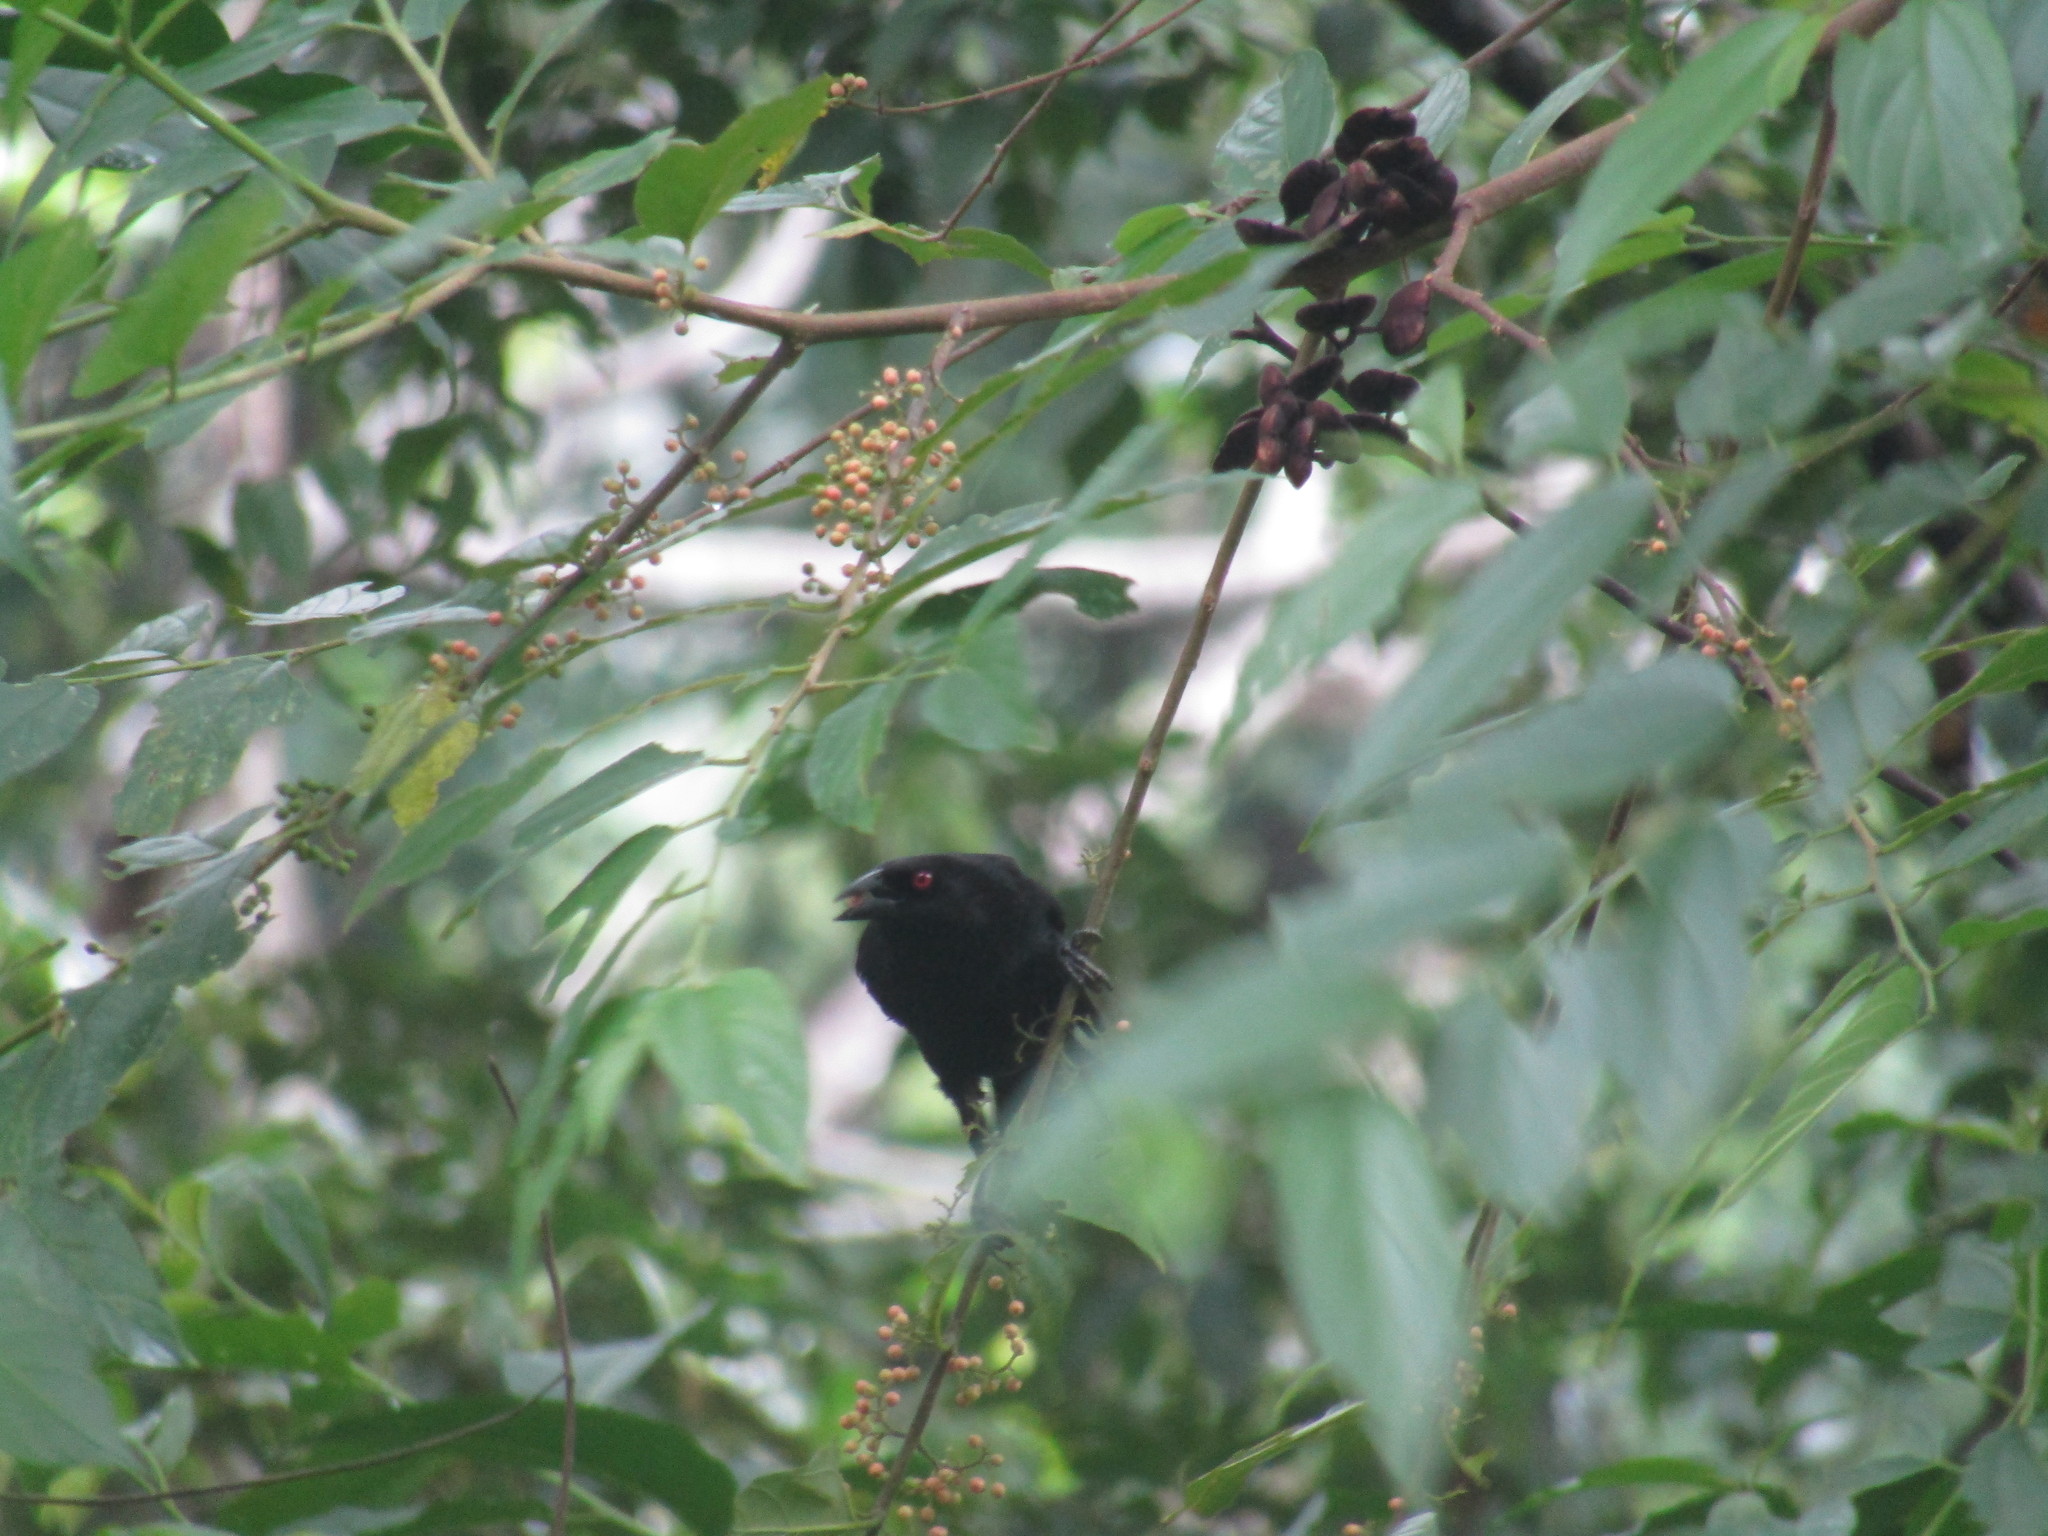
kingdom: Animalia
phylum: Chordata
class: Aves
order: Passeriformes
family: Icteridae
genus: Molothrus
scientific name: Molothrus aeneus
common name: Bronzed cowbird
